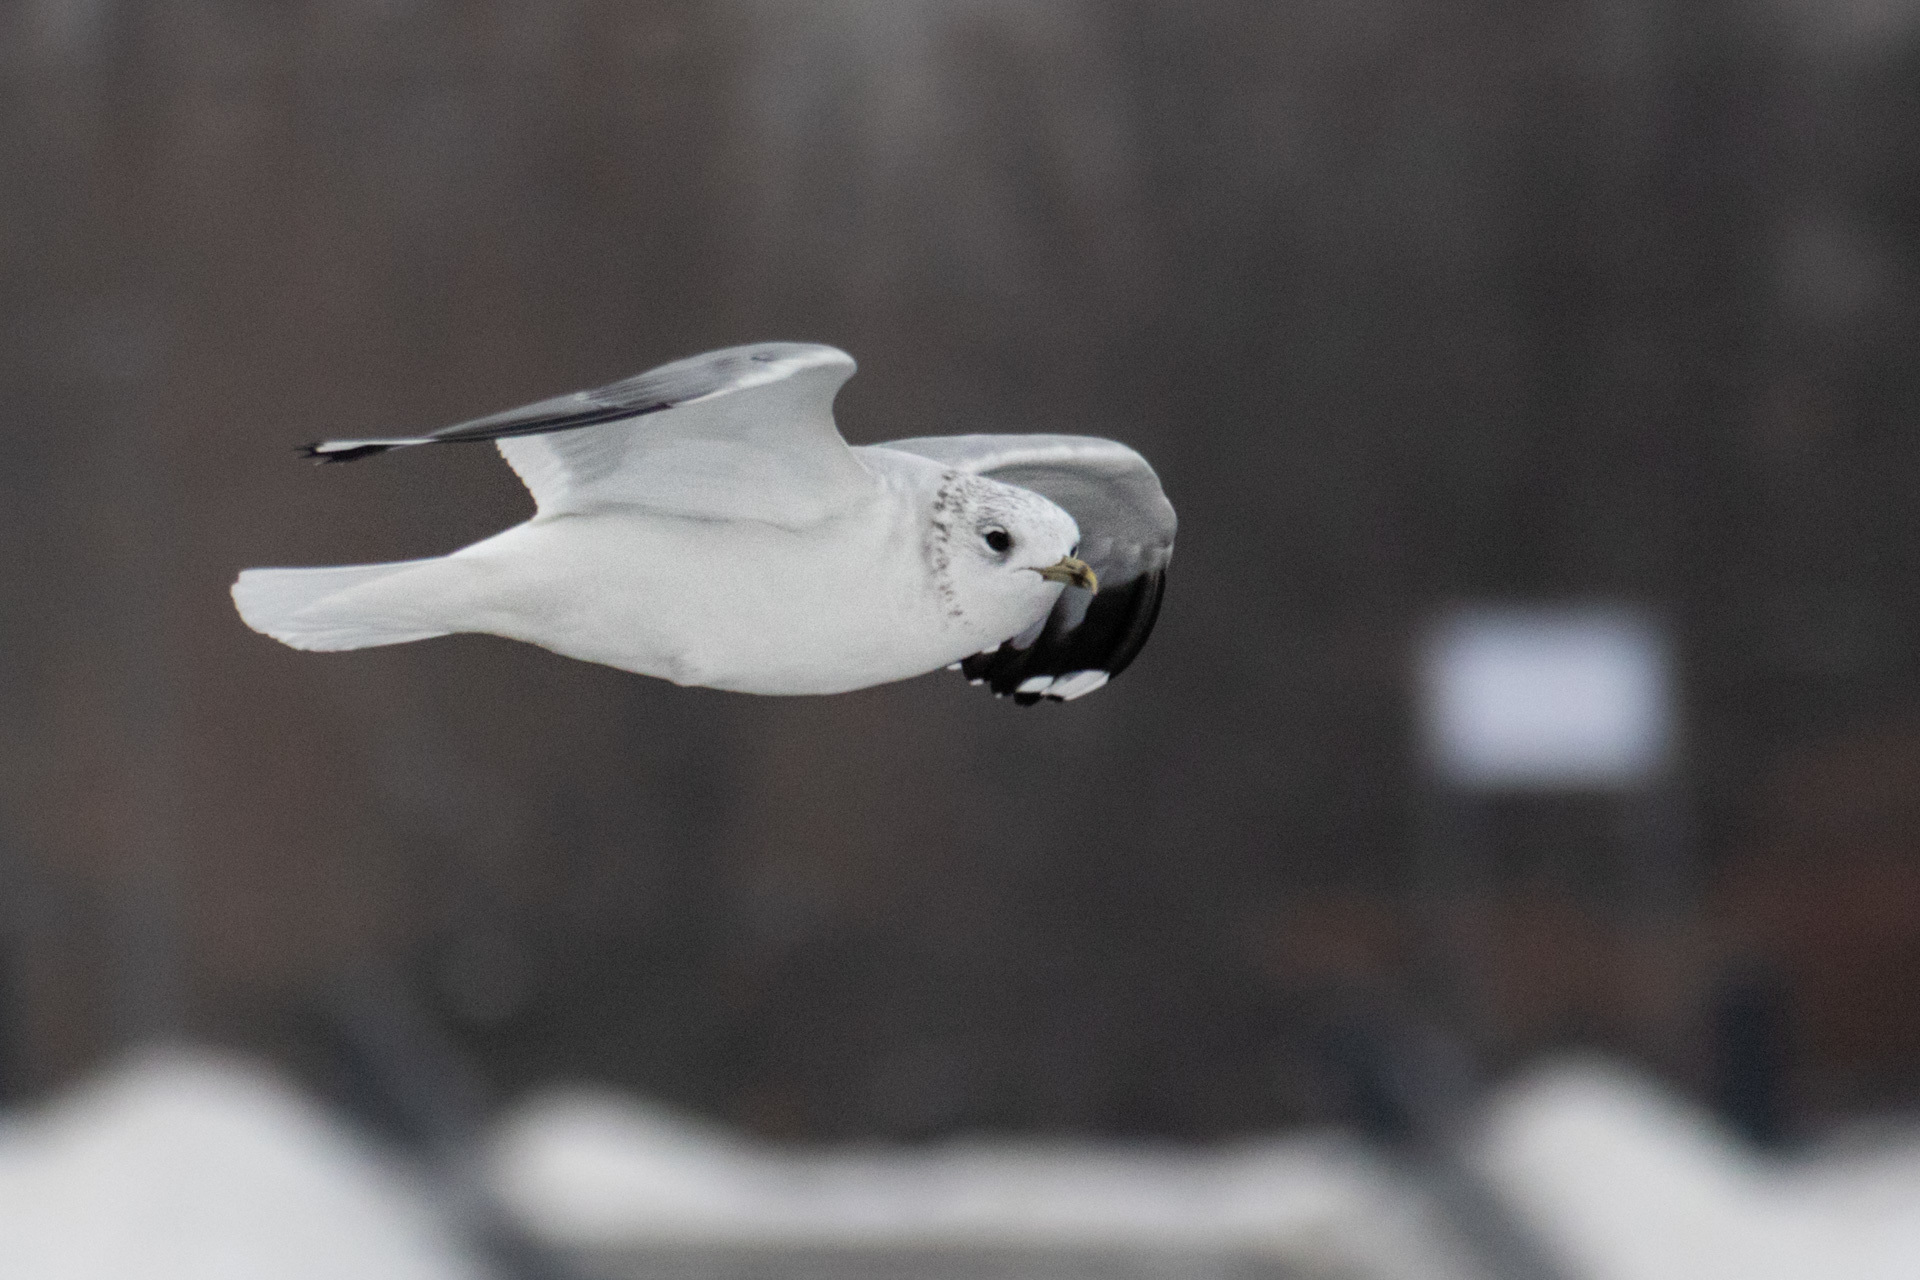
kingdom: Animalia
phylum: Chordata
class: Aves
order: Charadriiformes
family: Laridae
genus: Larus
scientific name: Larus canus
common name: Mew gull
